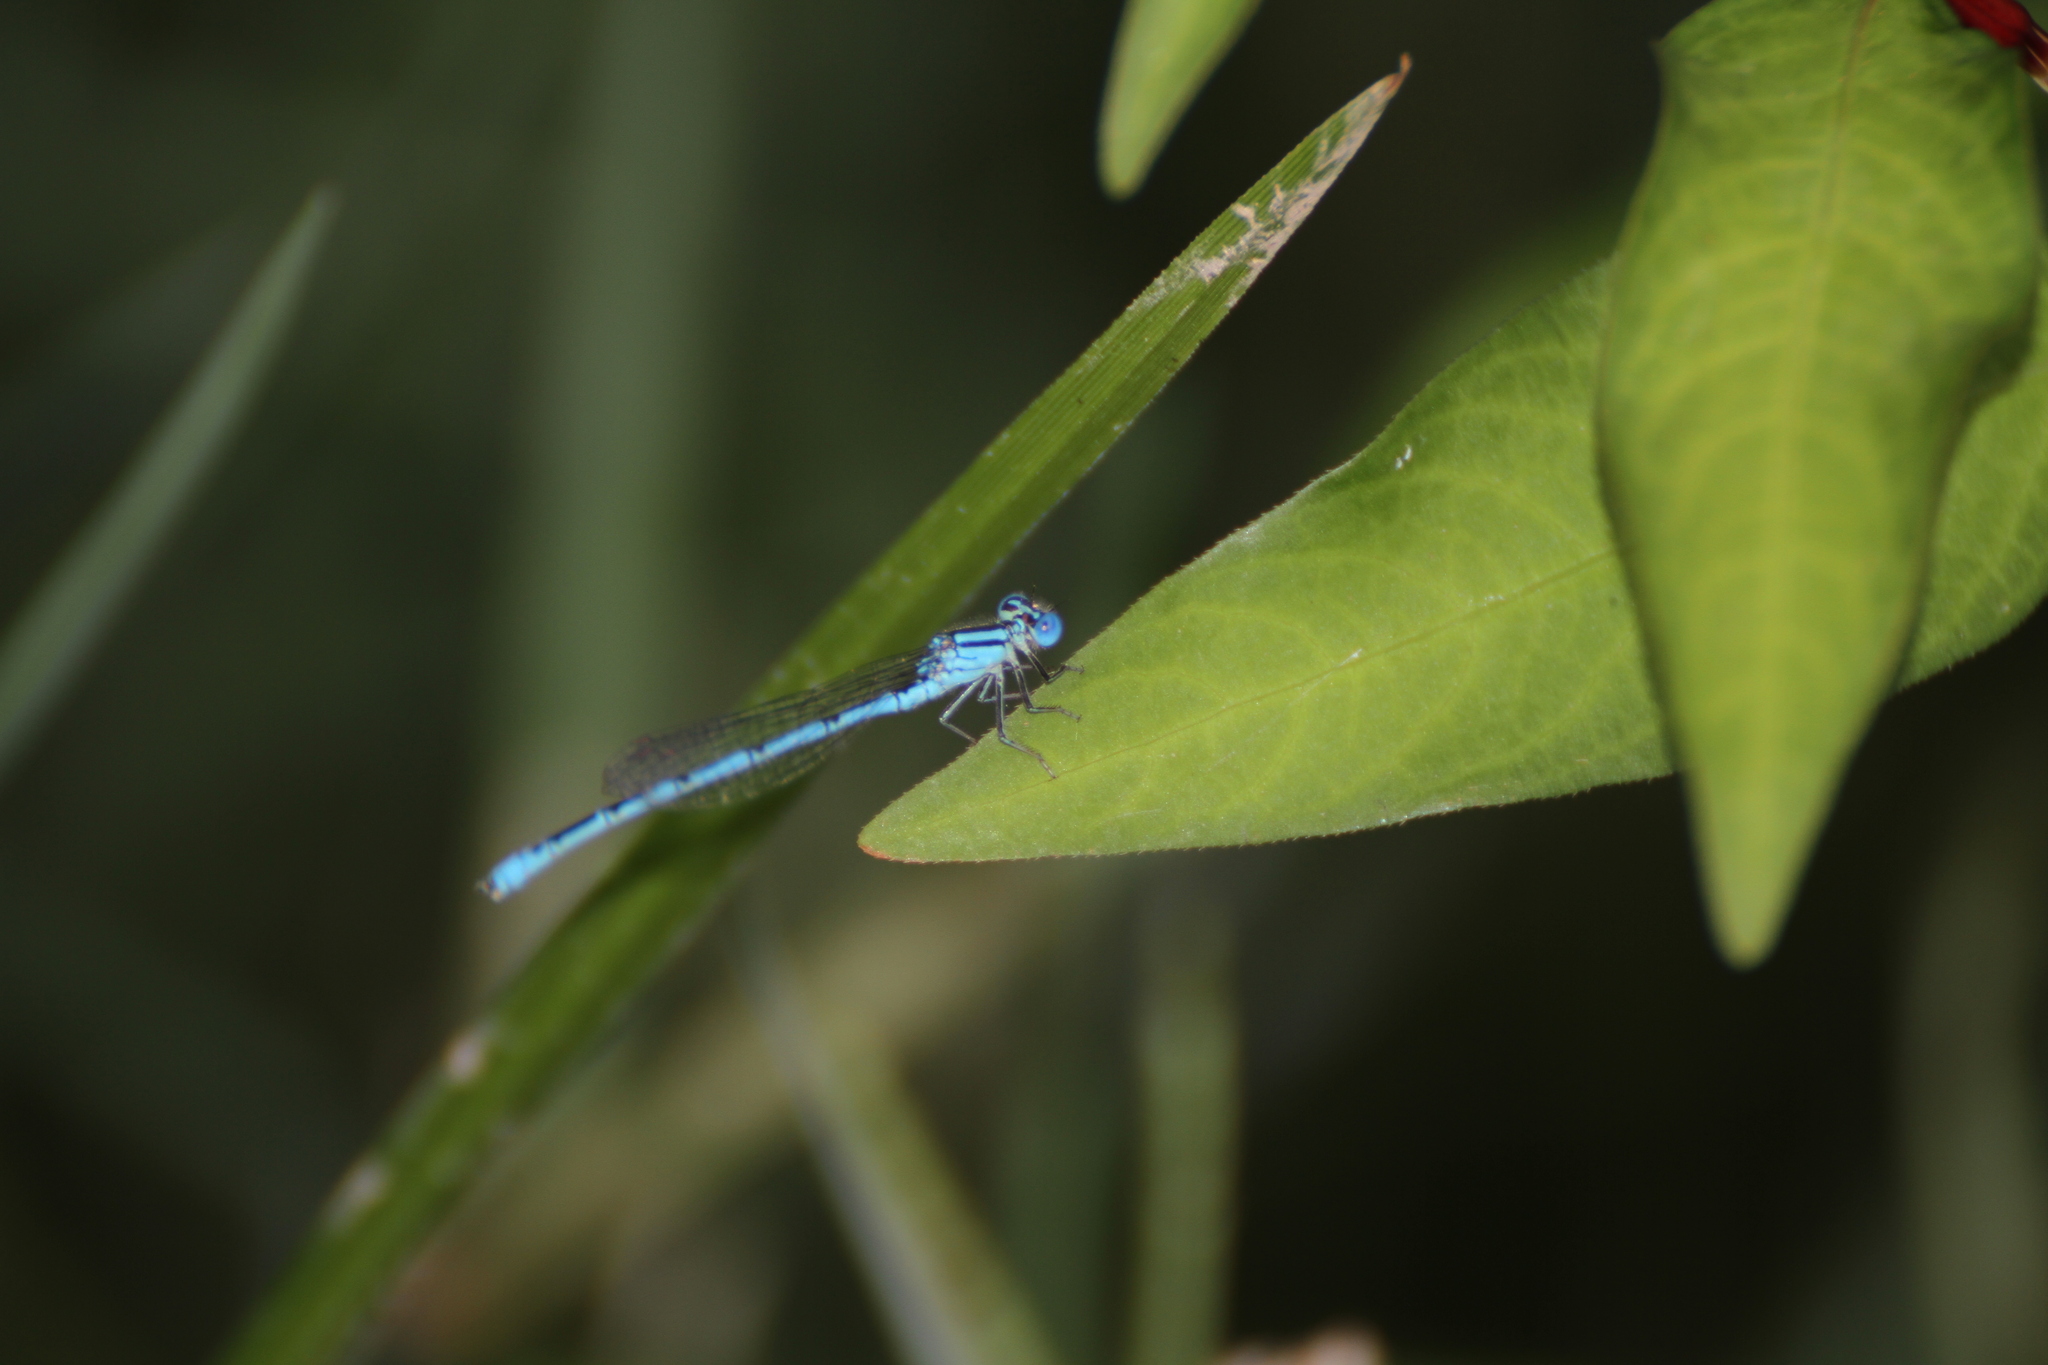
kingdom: Animalia
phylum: Arthropoda
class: Insecta
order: Odonata
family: Coenagrionidae
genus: Erythromma
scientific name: Erythromma lindenii
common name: Blue-eye
